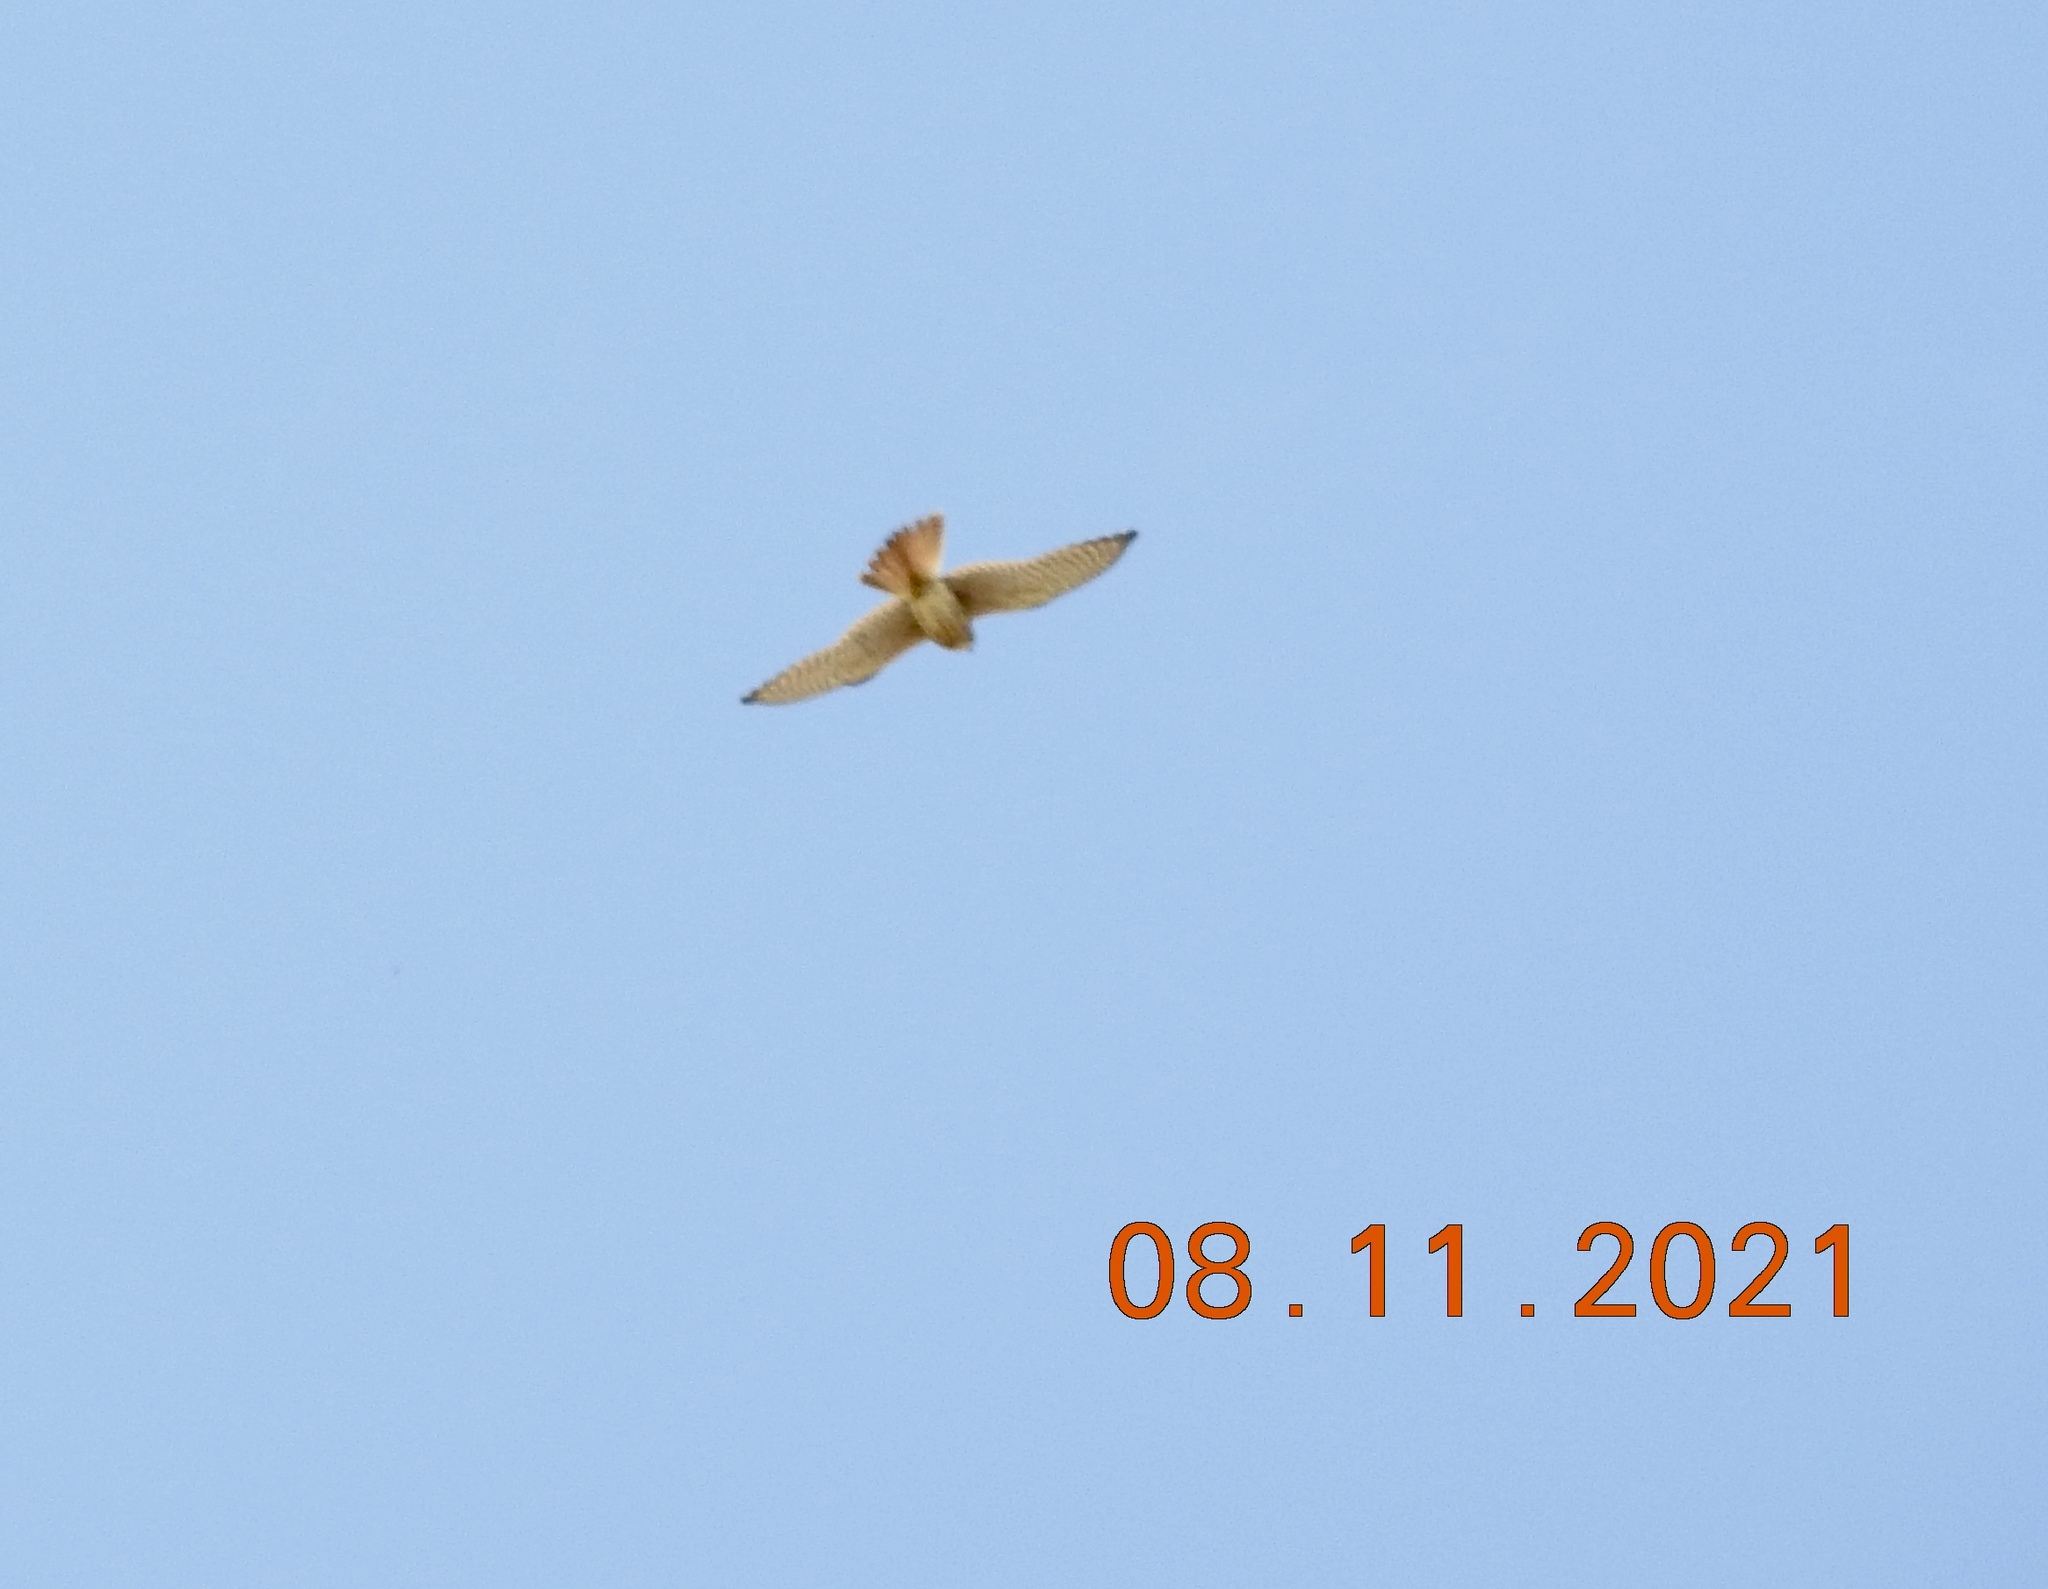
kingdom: Animalia
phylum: Chordata
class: Aves
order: Falconiformes
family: Falconidae
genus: Falco
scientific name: Falco sparverius
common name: American kestrel
